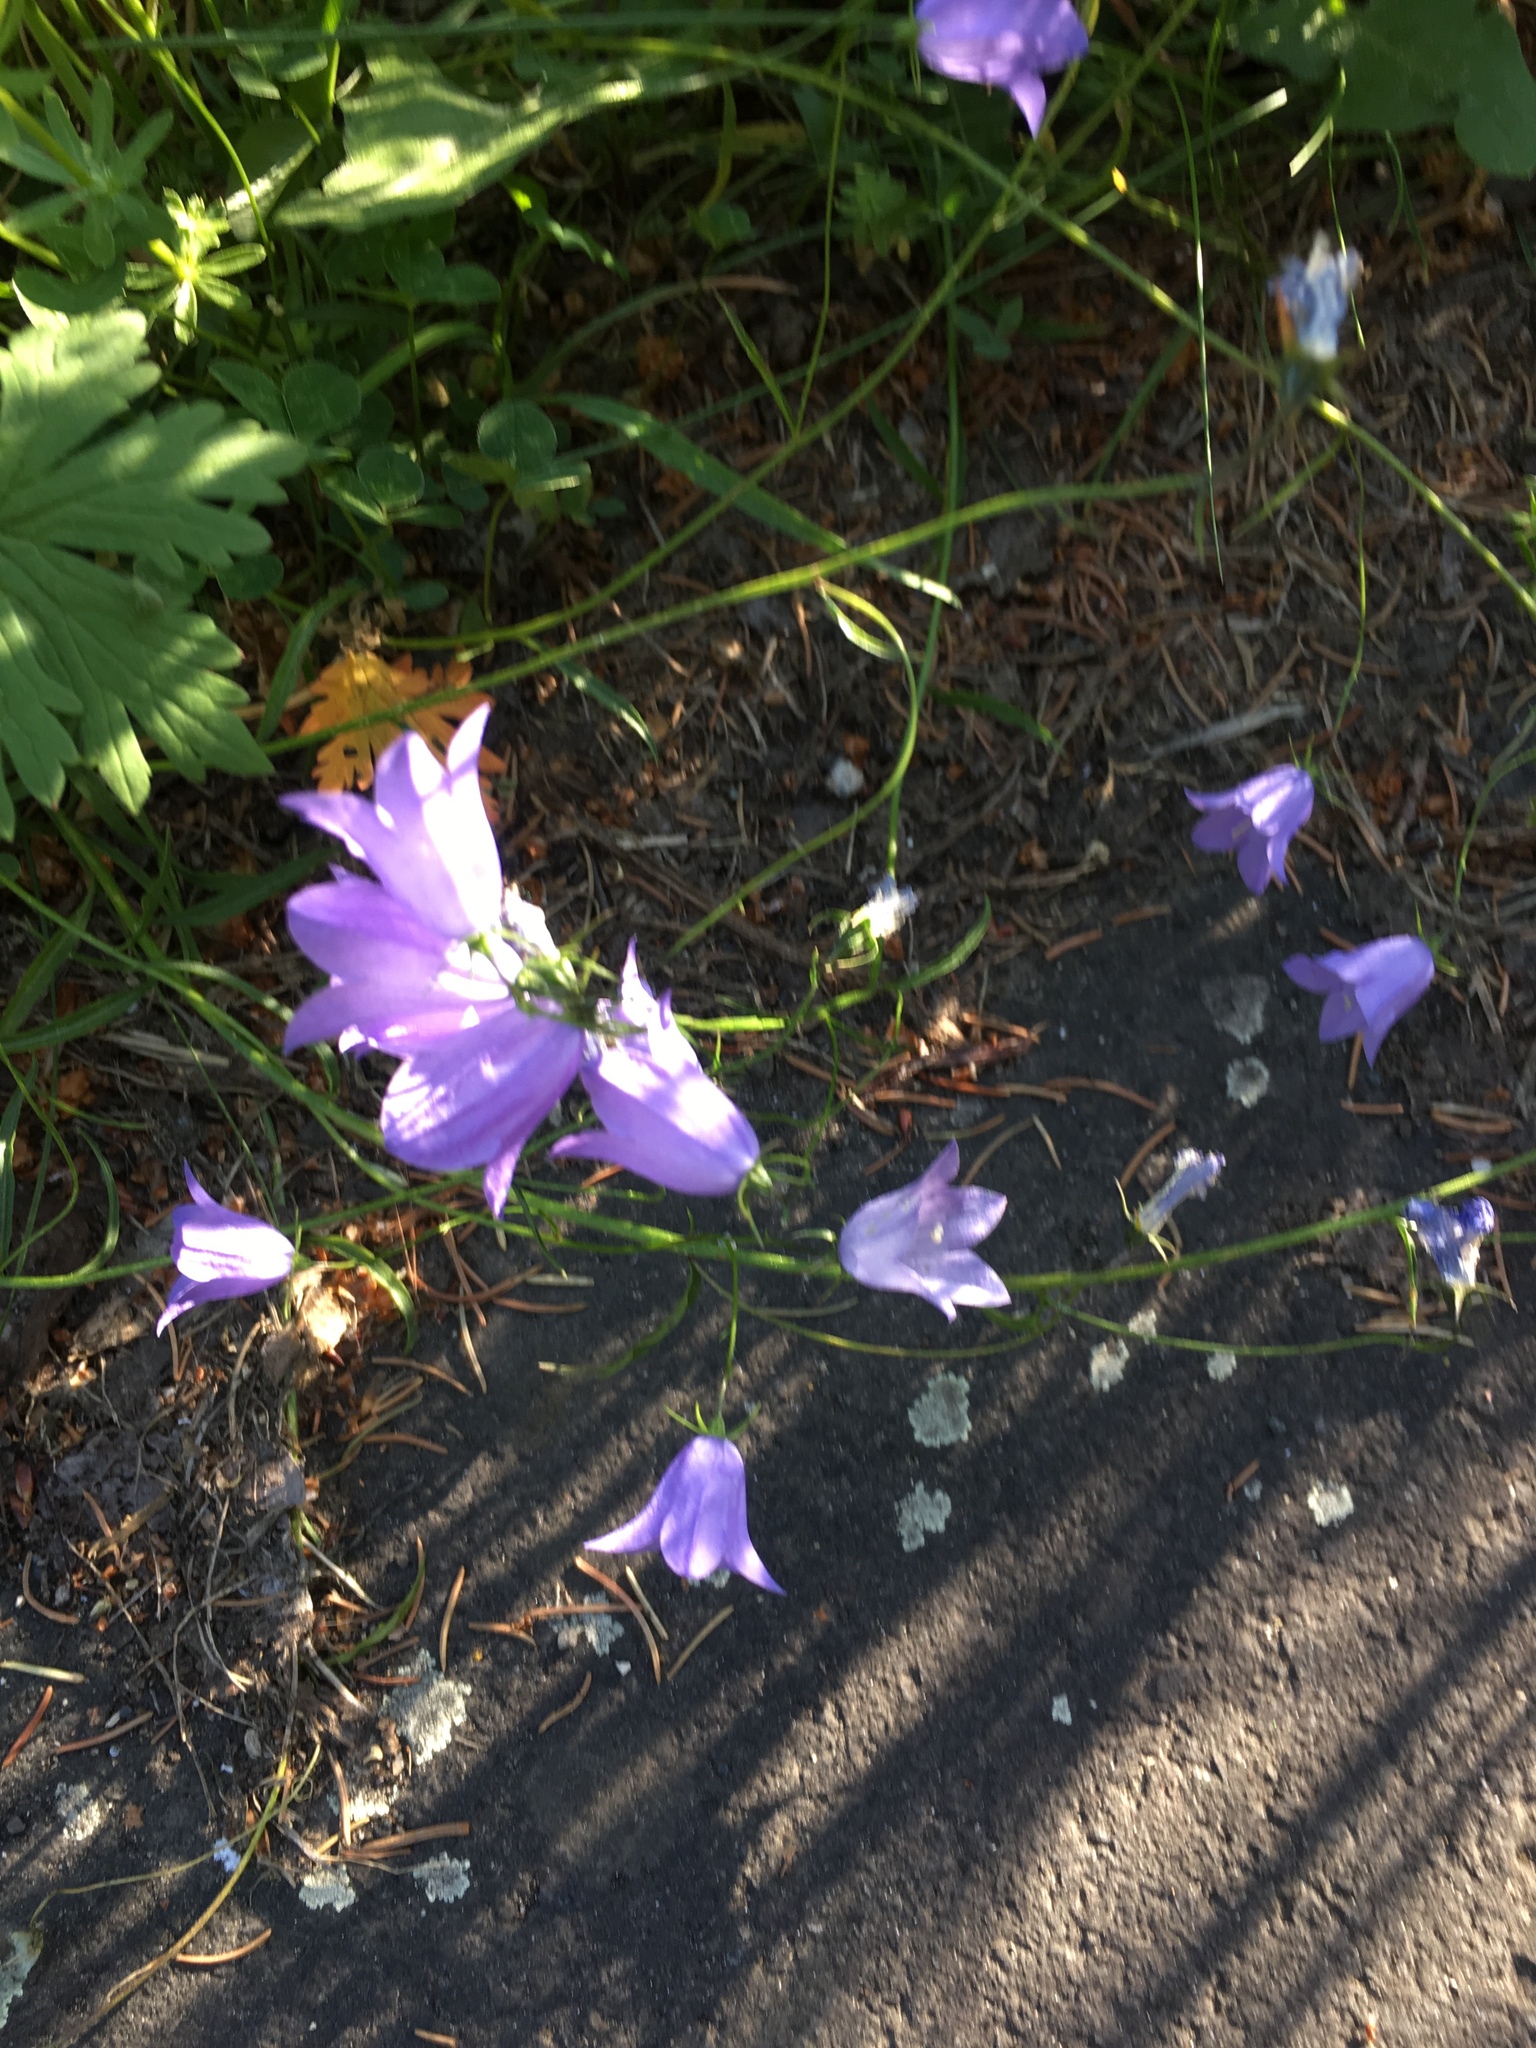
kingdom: Plantae
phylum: Tracheophyta
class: Magnoliopsida
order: Asterales
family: Campanulaceae
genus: Campanula
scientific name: Campanula rotundifolia
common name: Harebell
